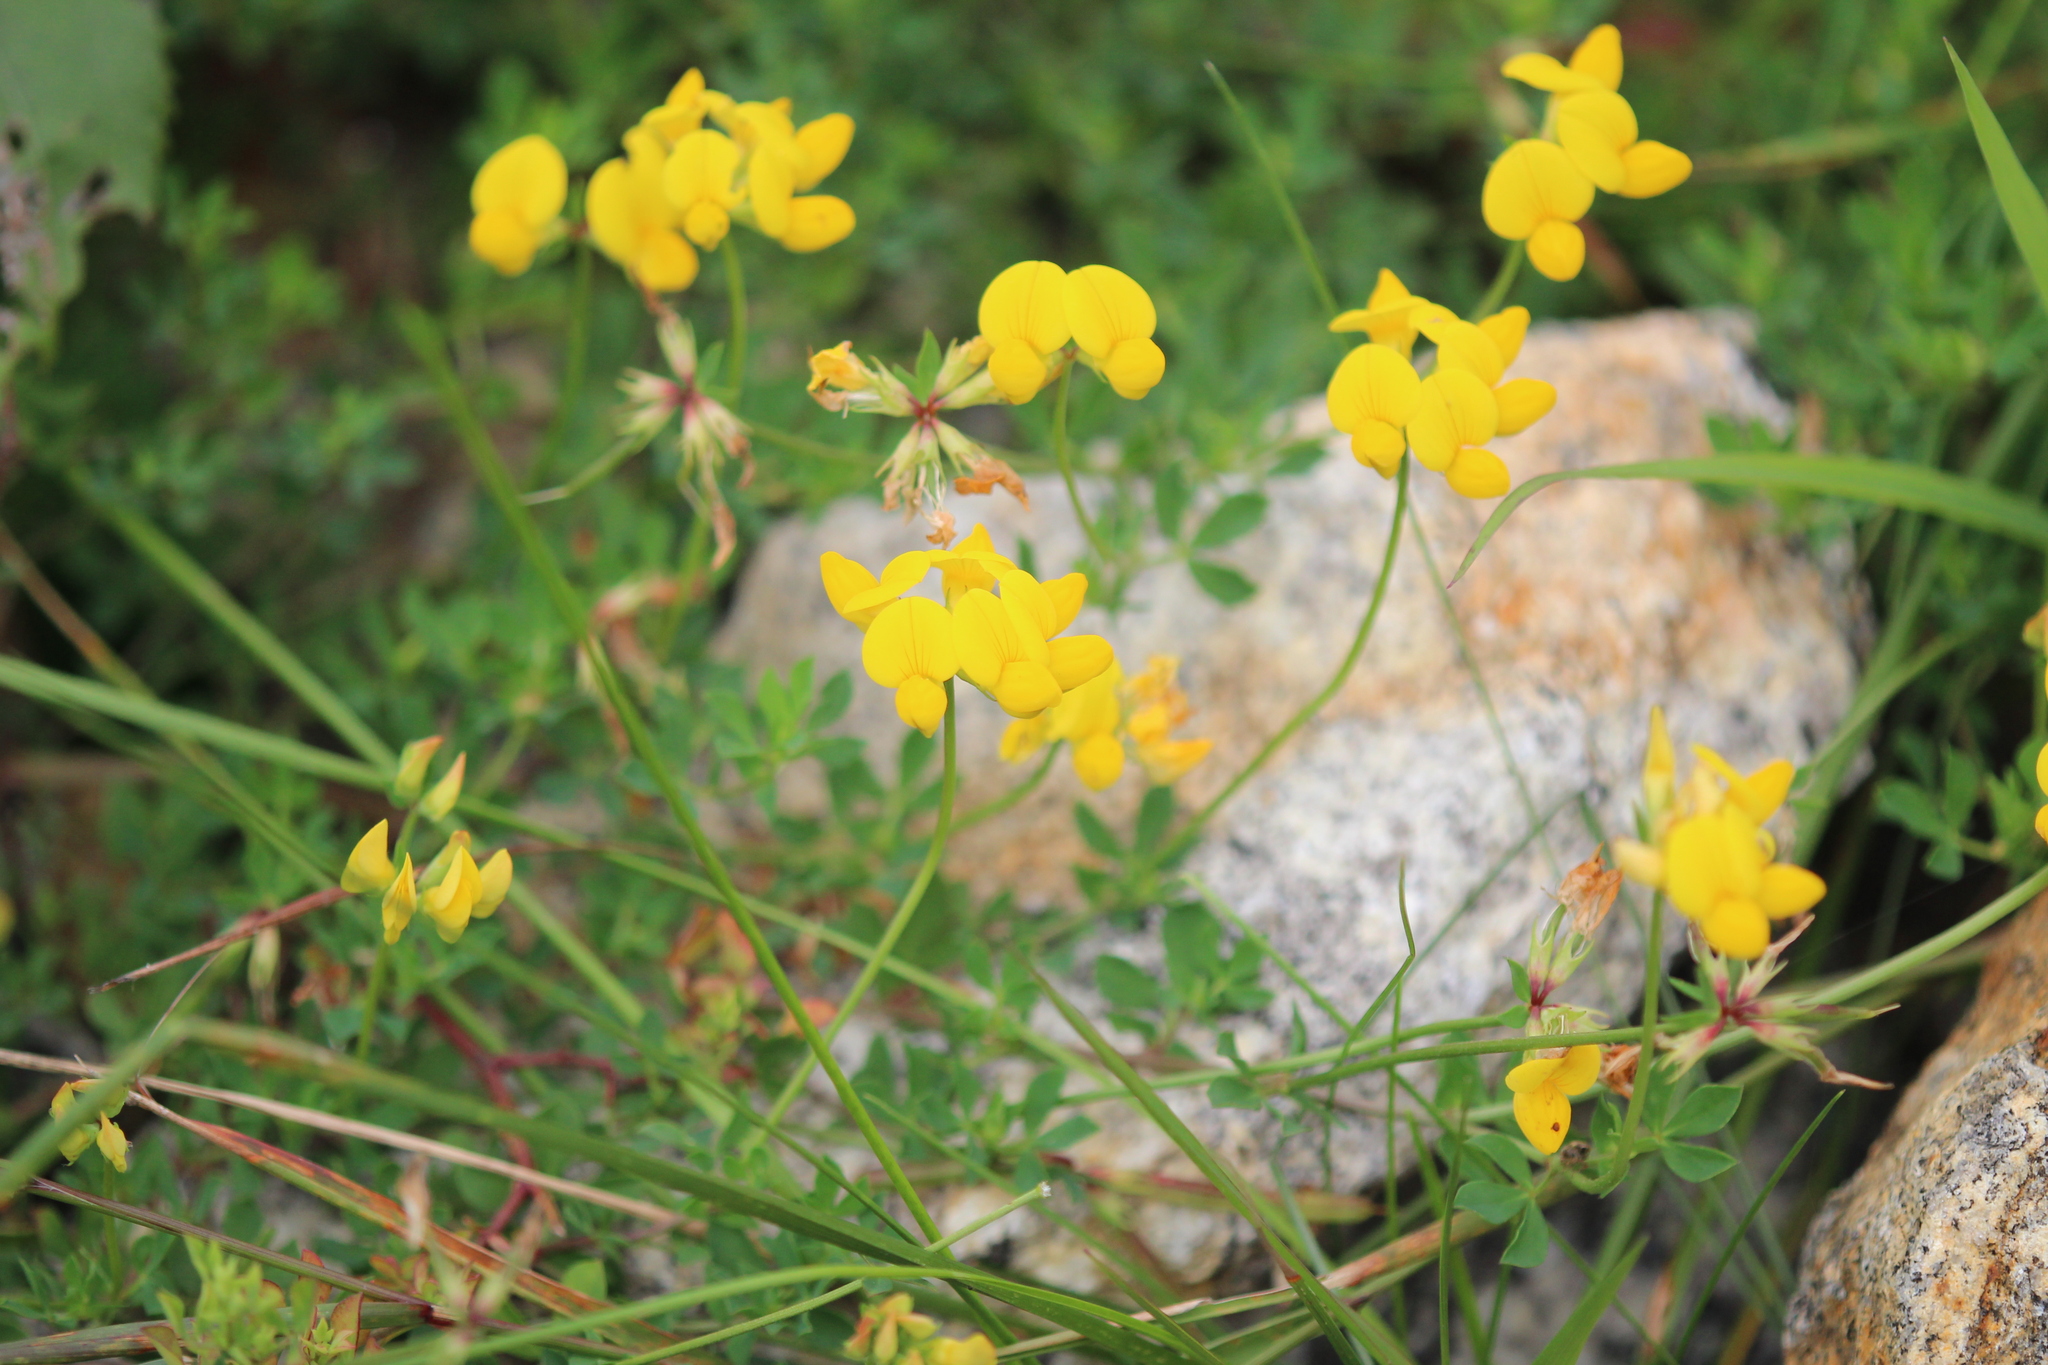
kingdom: Plantae
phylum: Tracheophyta
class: Magnoliopsida
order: Fabales
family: Fabaceae
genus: Lotus
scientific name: Lotus corniculatus
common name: Common bird's-foot-trefoil
